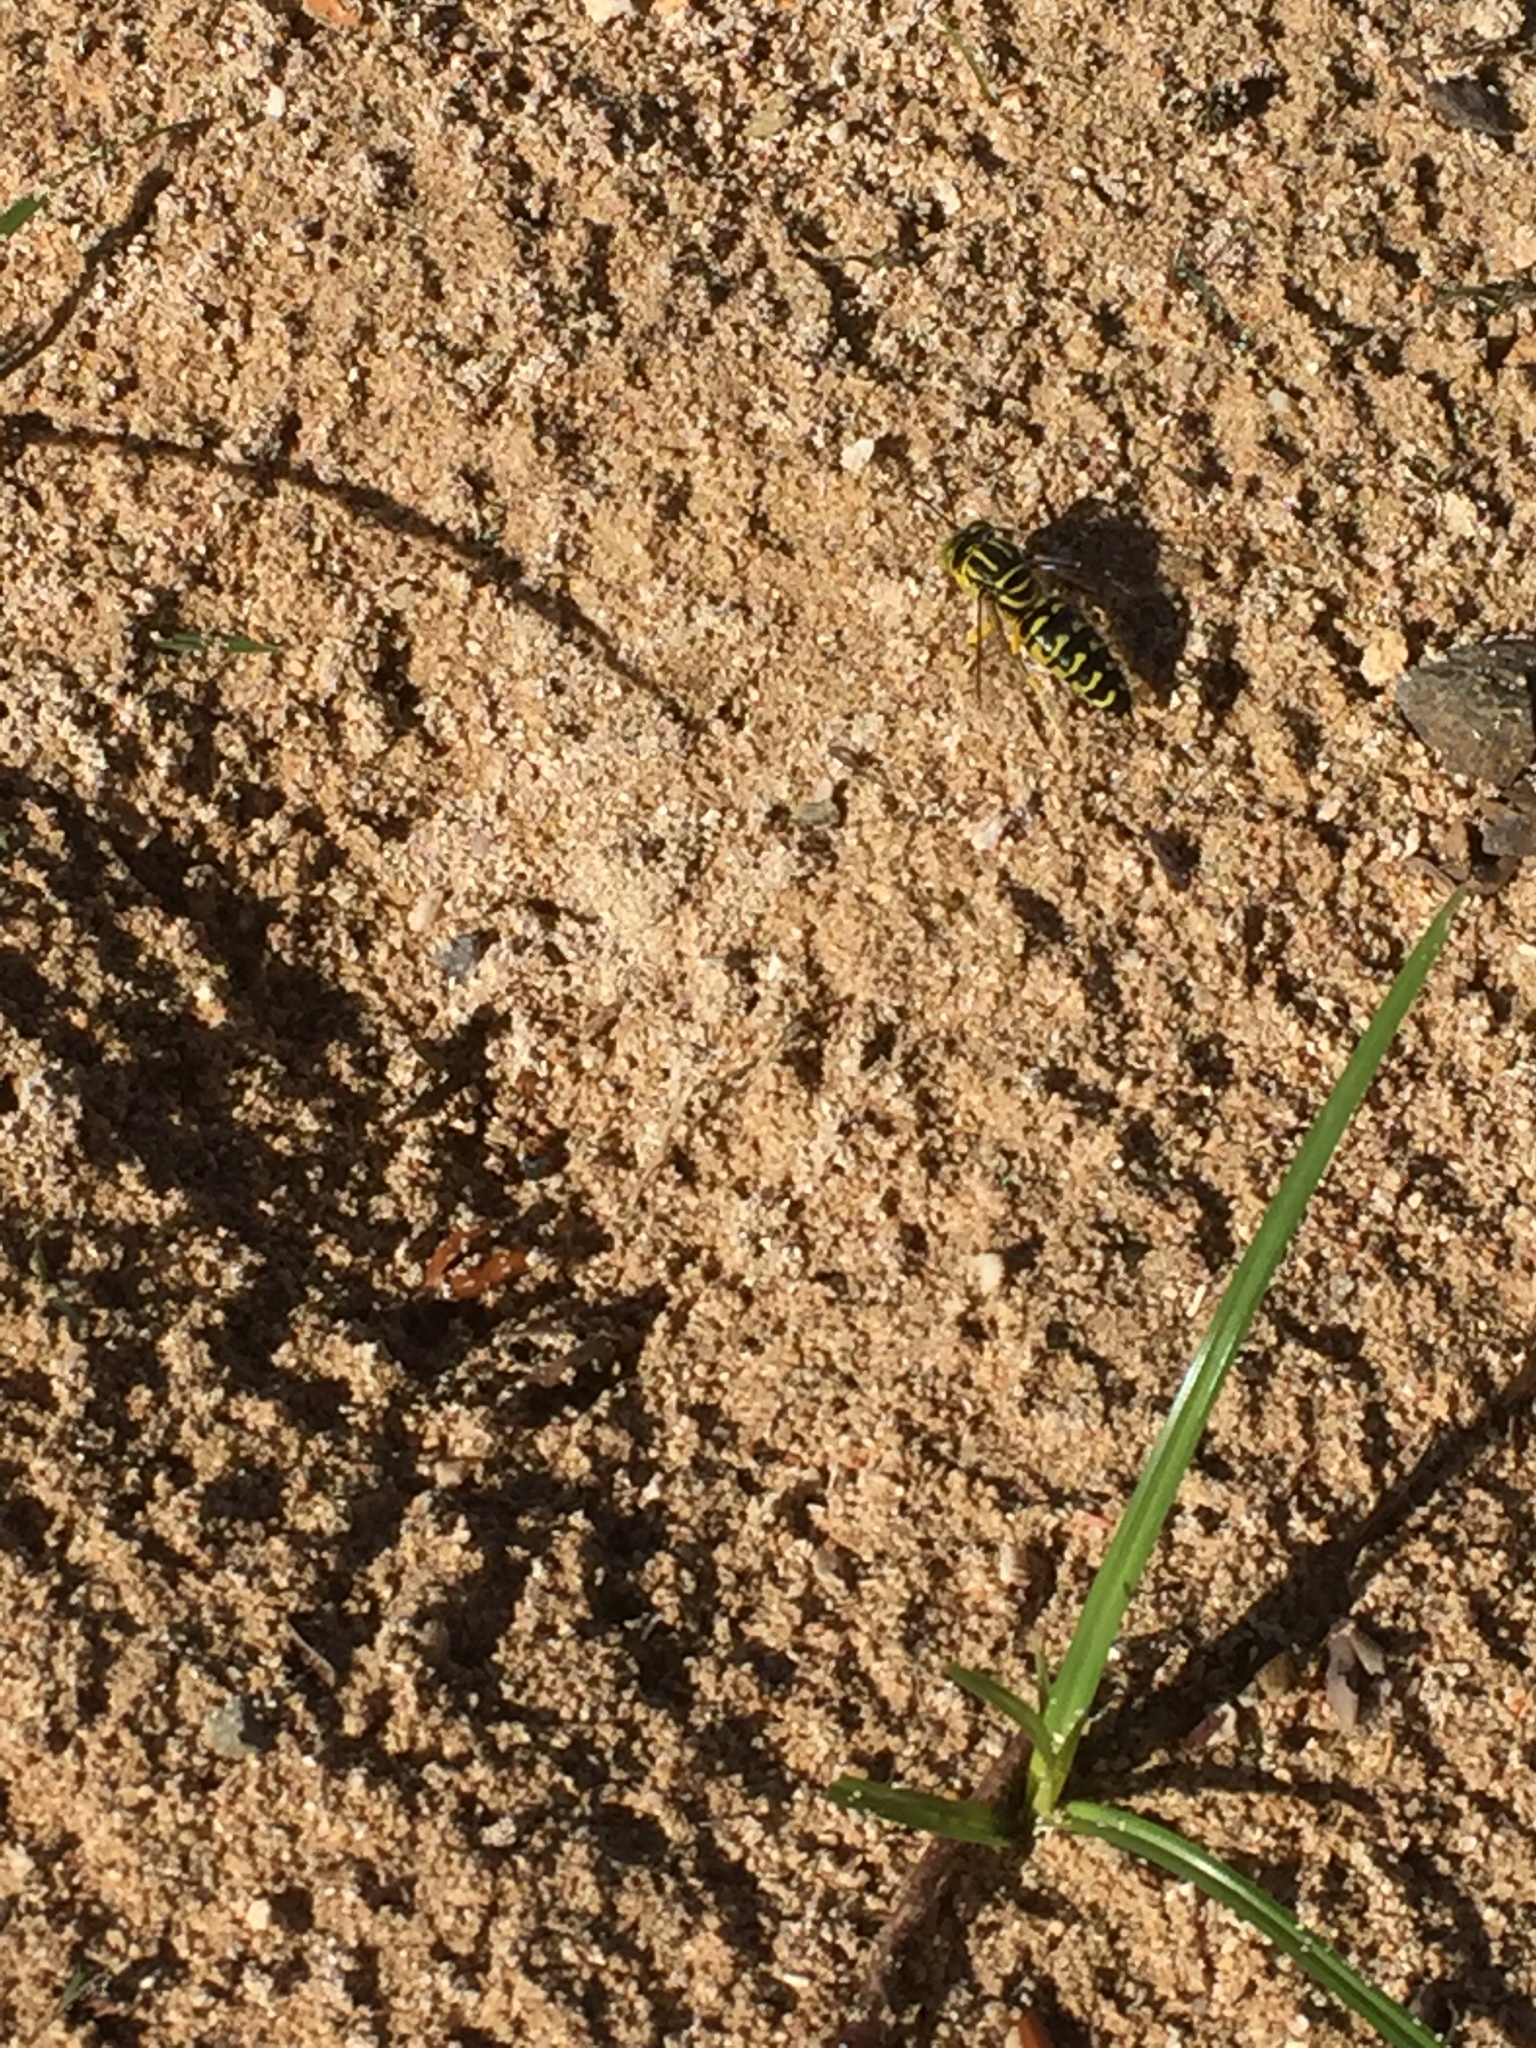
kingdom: Animalia
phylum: Arthropoda
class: Insecta
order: Hymenoptera
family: Crabronidae
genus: Stictia
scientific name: Stictia signata
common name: Sand wasp
